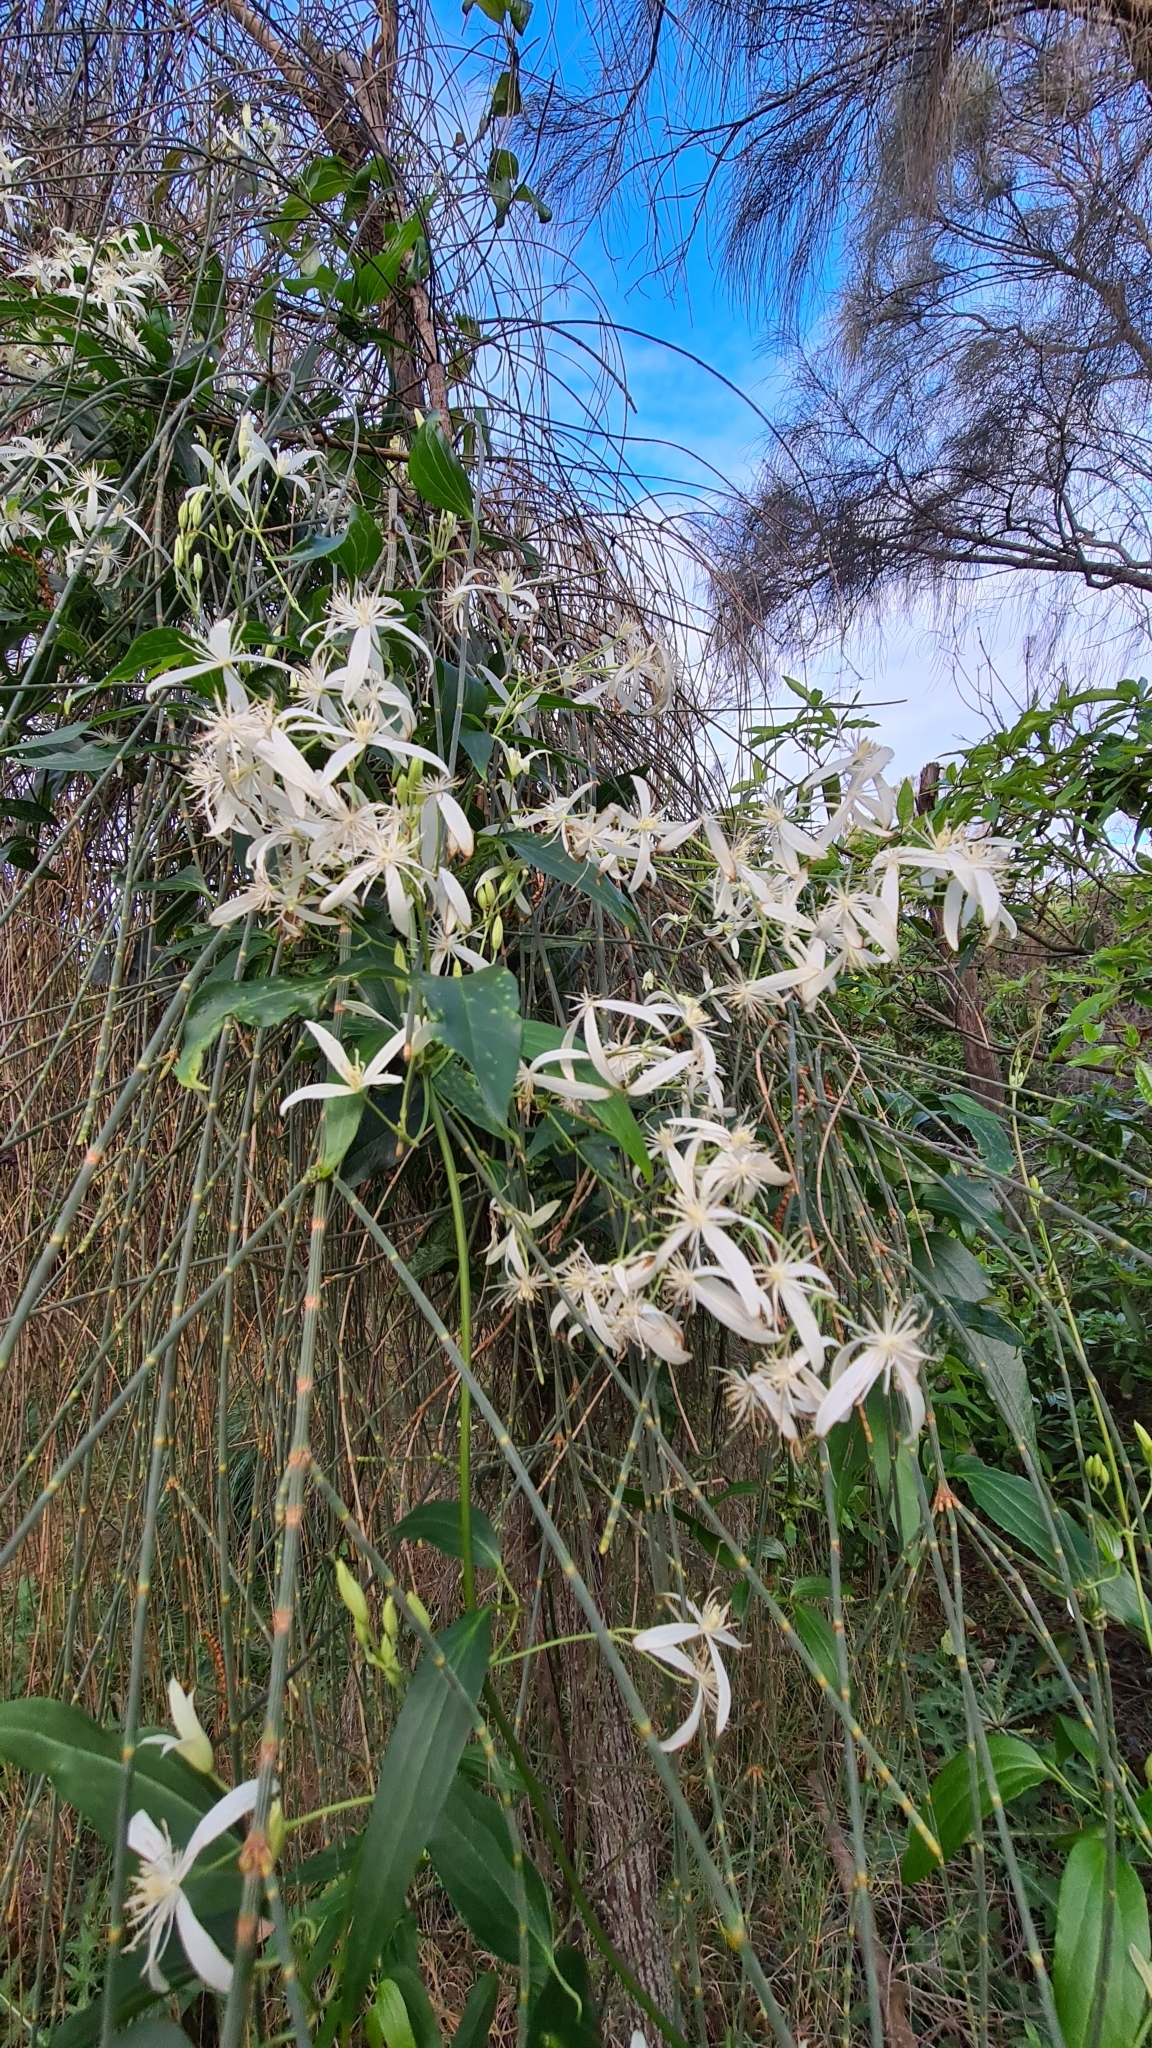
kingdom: Plantae
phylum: Tracheophyta
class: Magnoliopsida
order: Ranunculales
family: Ranunculaceae
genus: Clematis
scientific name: Clematis glycinoides
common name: Forest clematis
